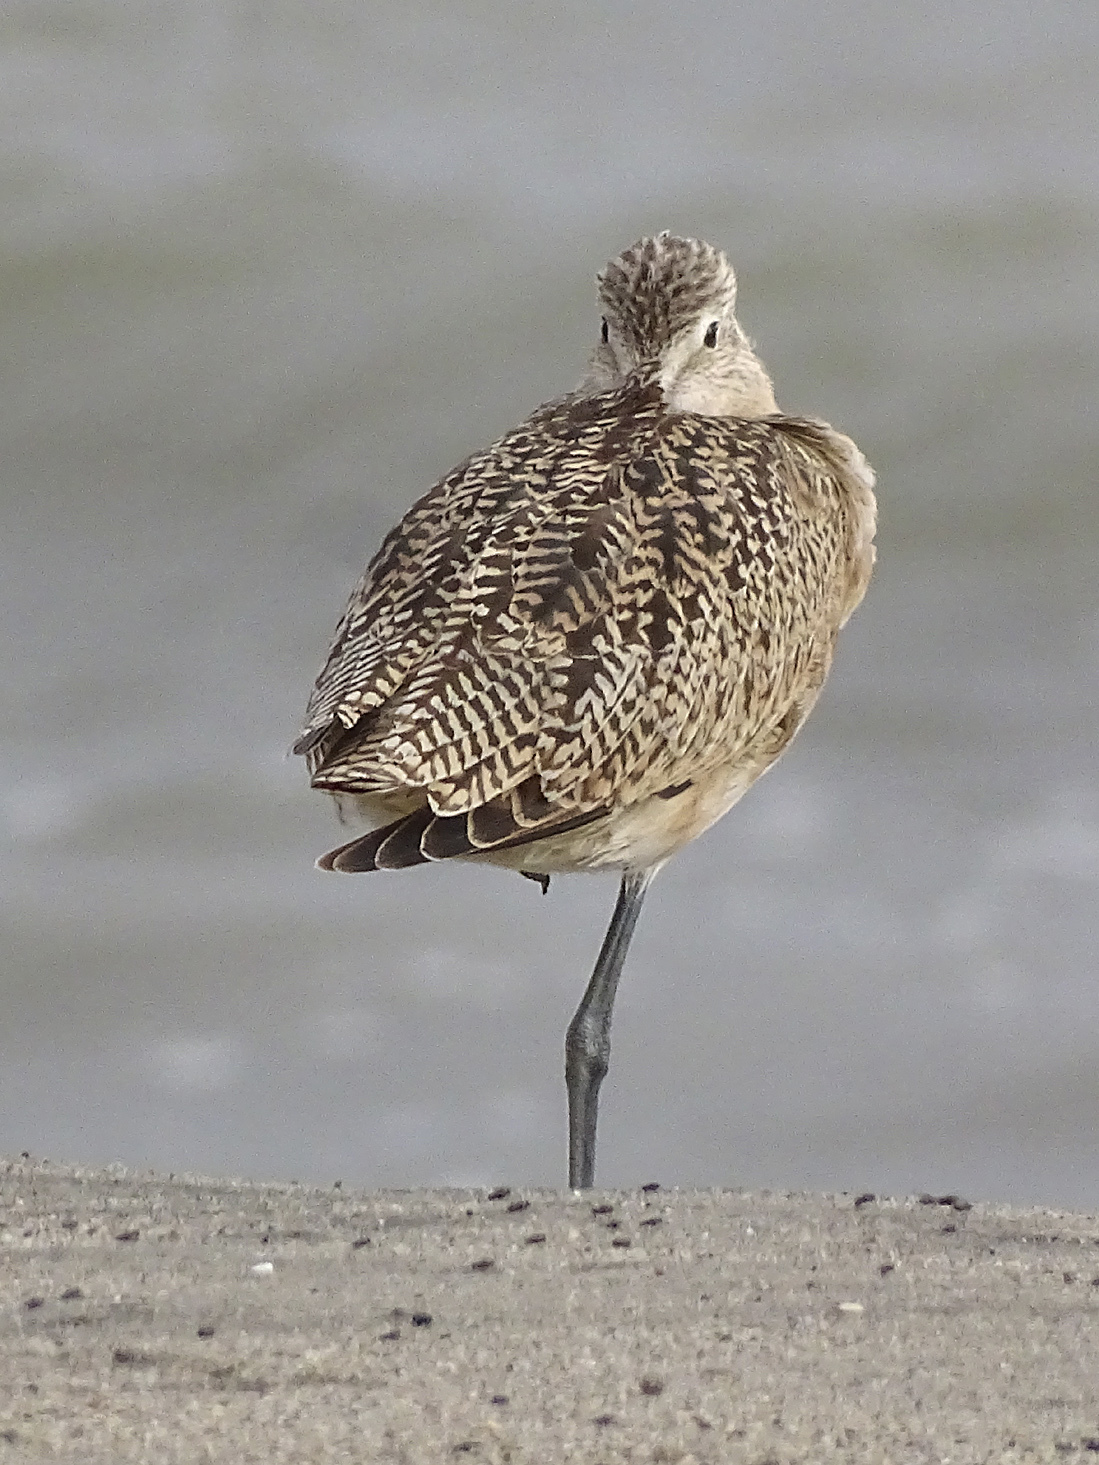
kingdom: Animalia
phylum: Chordata
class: Aves
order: Charadriiformes
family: Scolopacidae
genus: Limosa
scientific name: Limosa fedoa
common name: Marbled godwit
